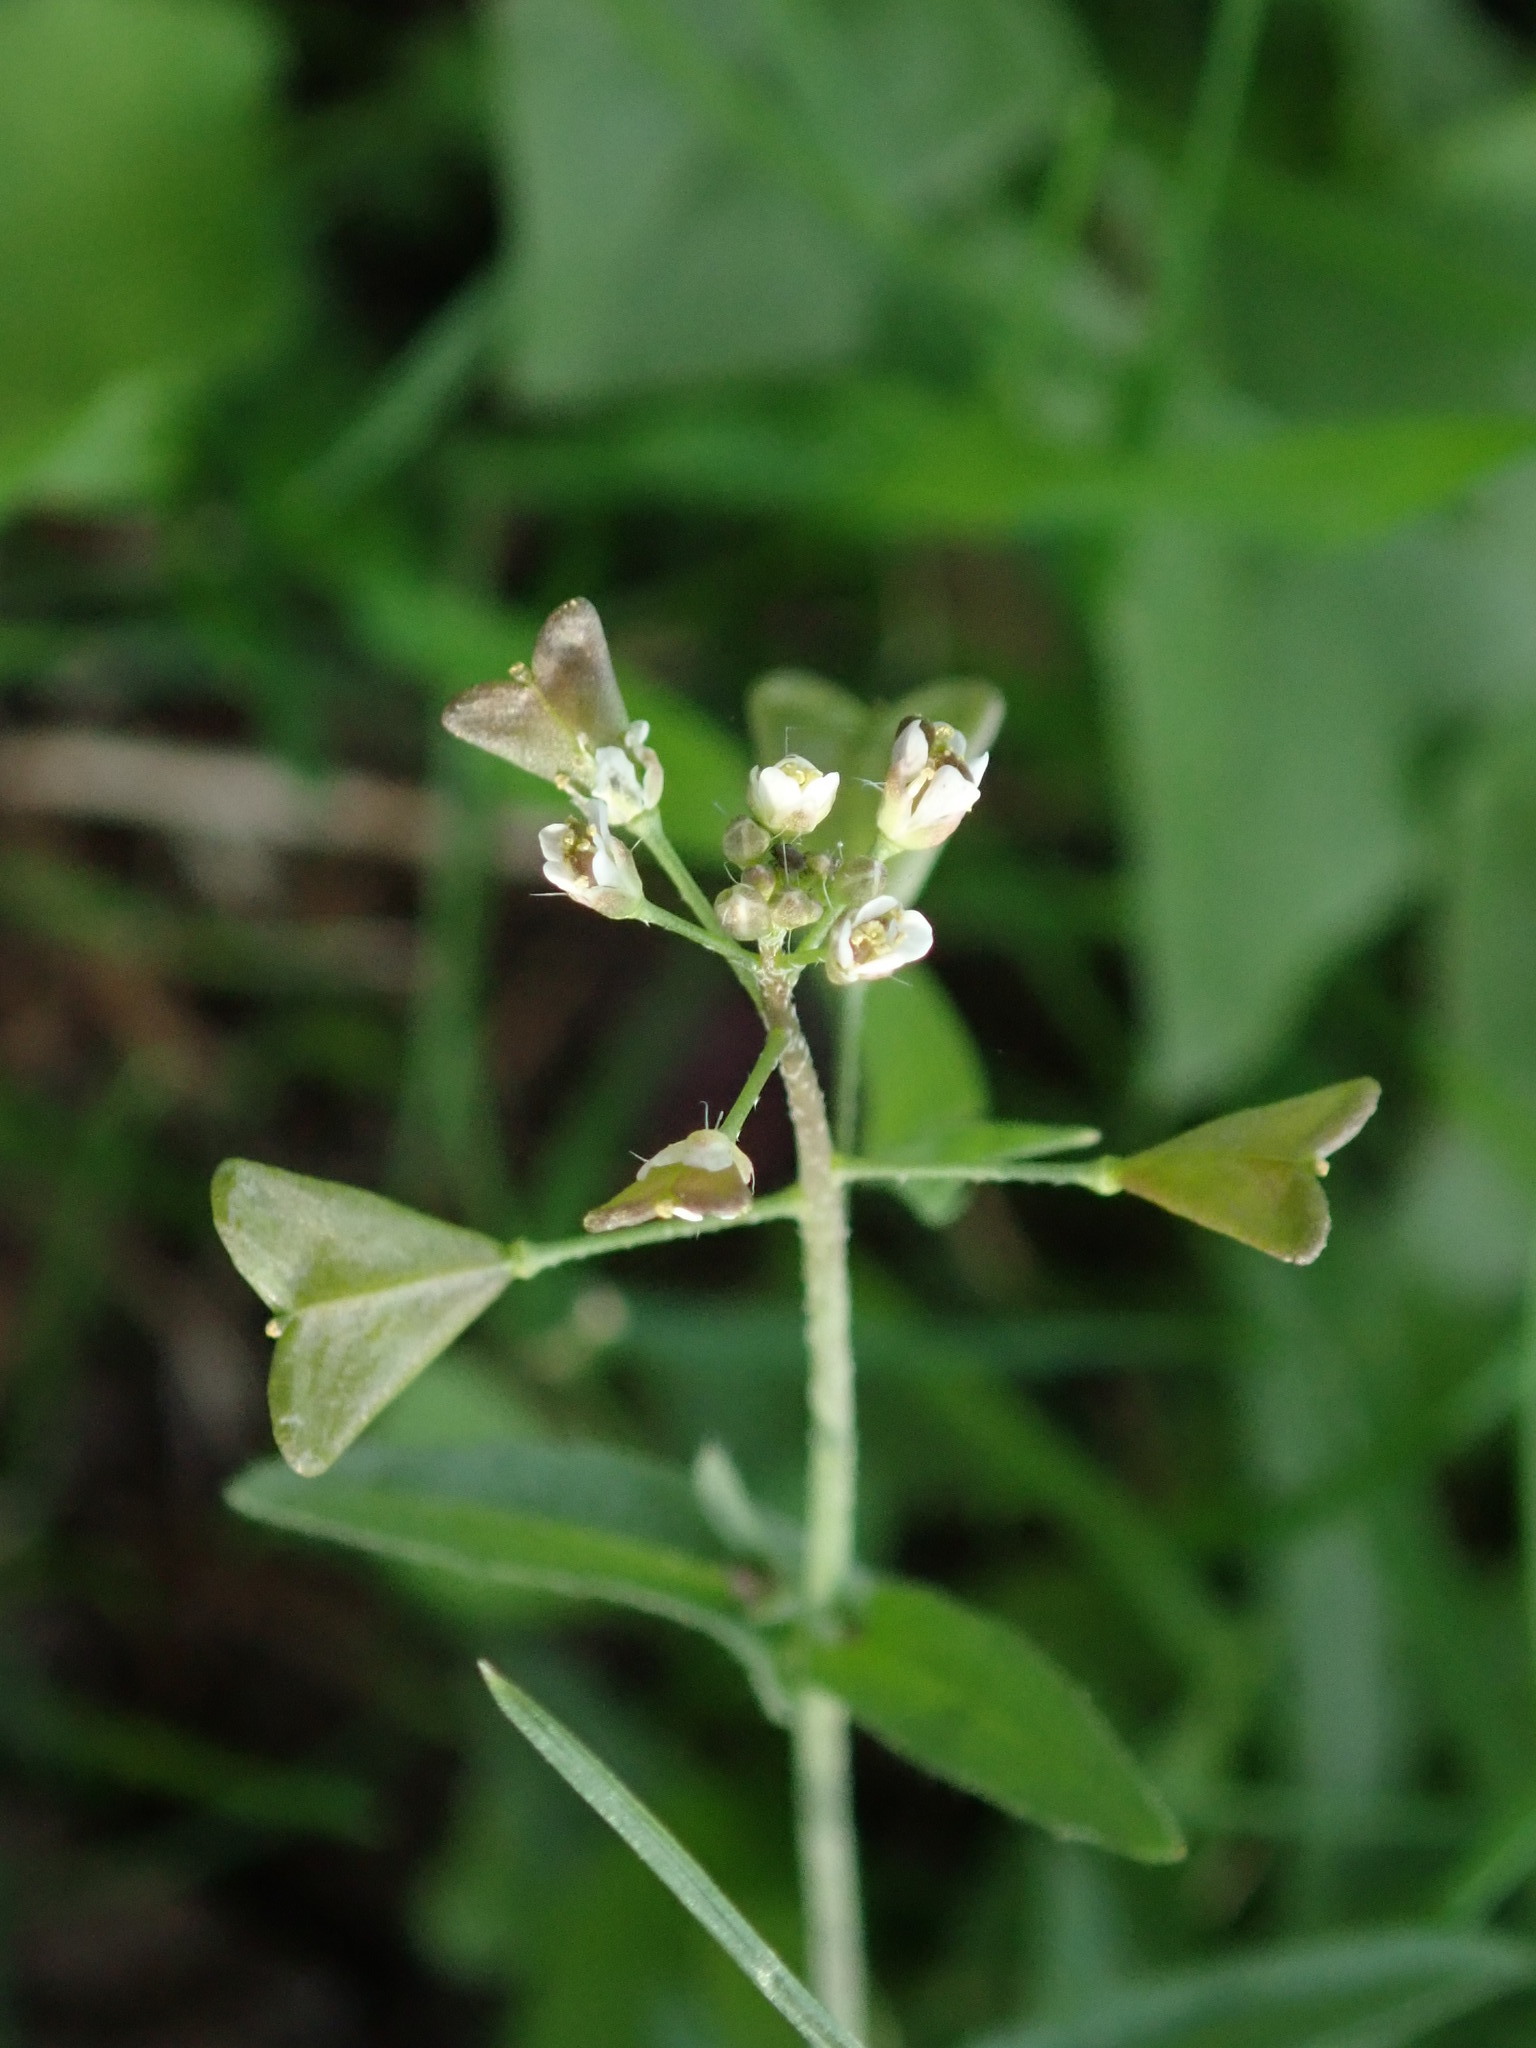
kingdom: Plantae
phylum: Tracheophyta
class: Magnoliopsida
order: Brassicales
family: Brassicaceae
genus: Capsella
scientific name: Capsella bursa-pastoris
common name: Shepherd's purse
